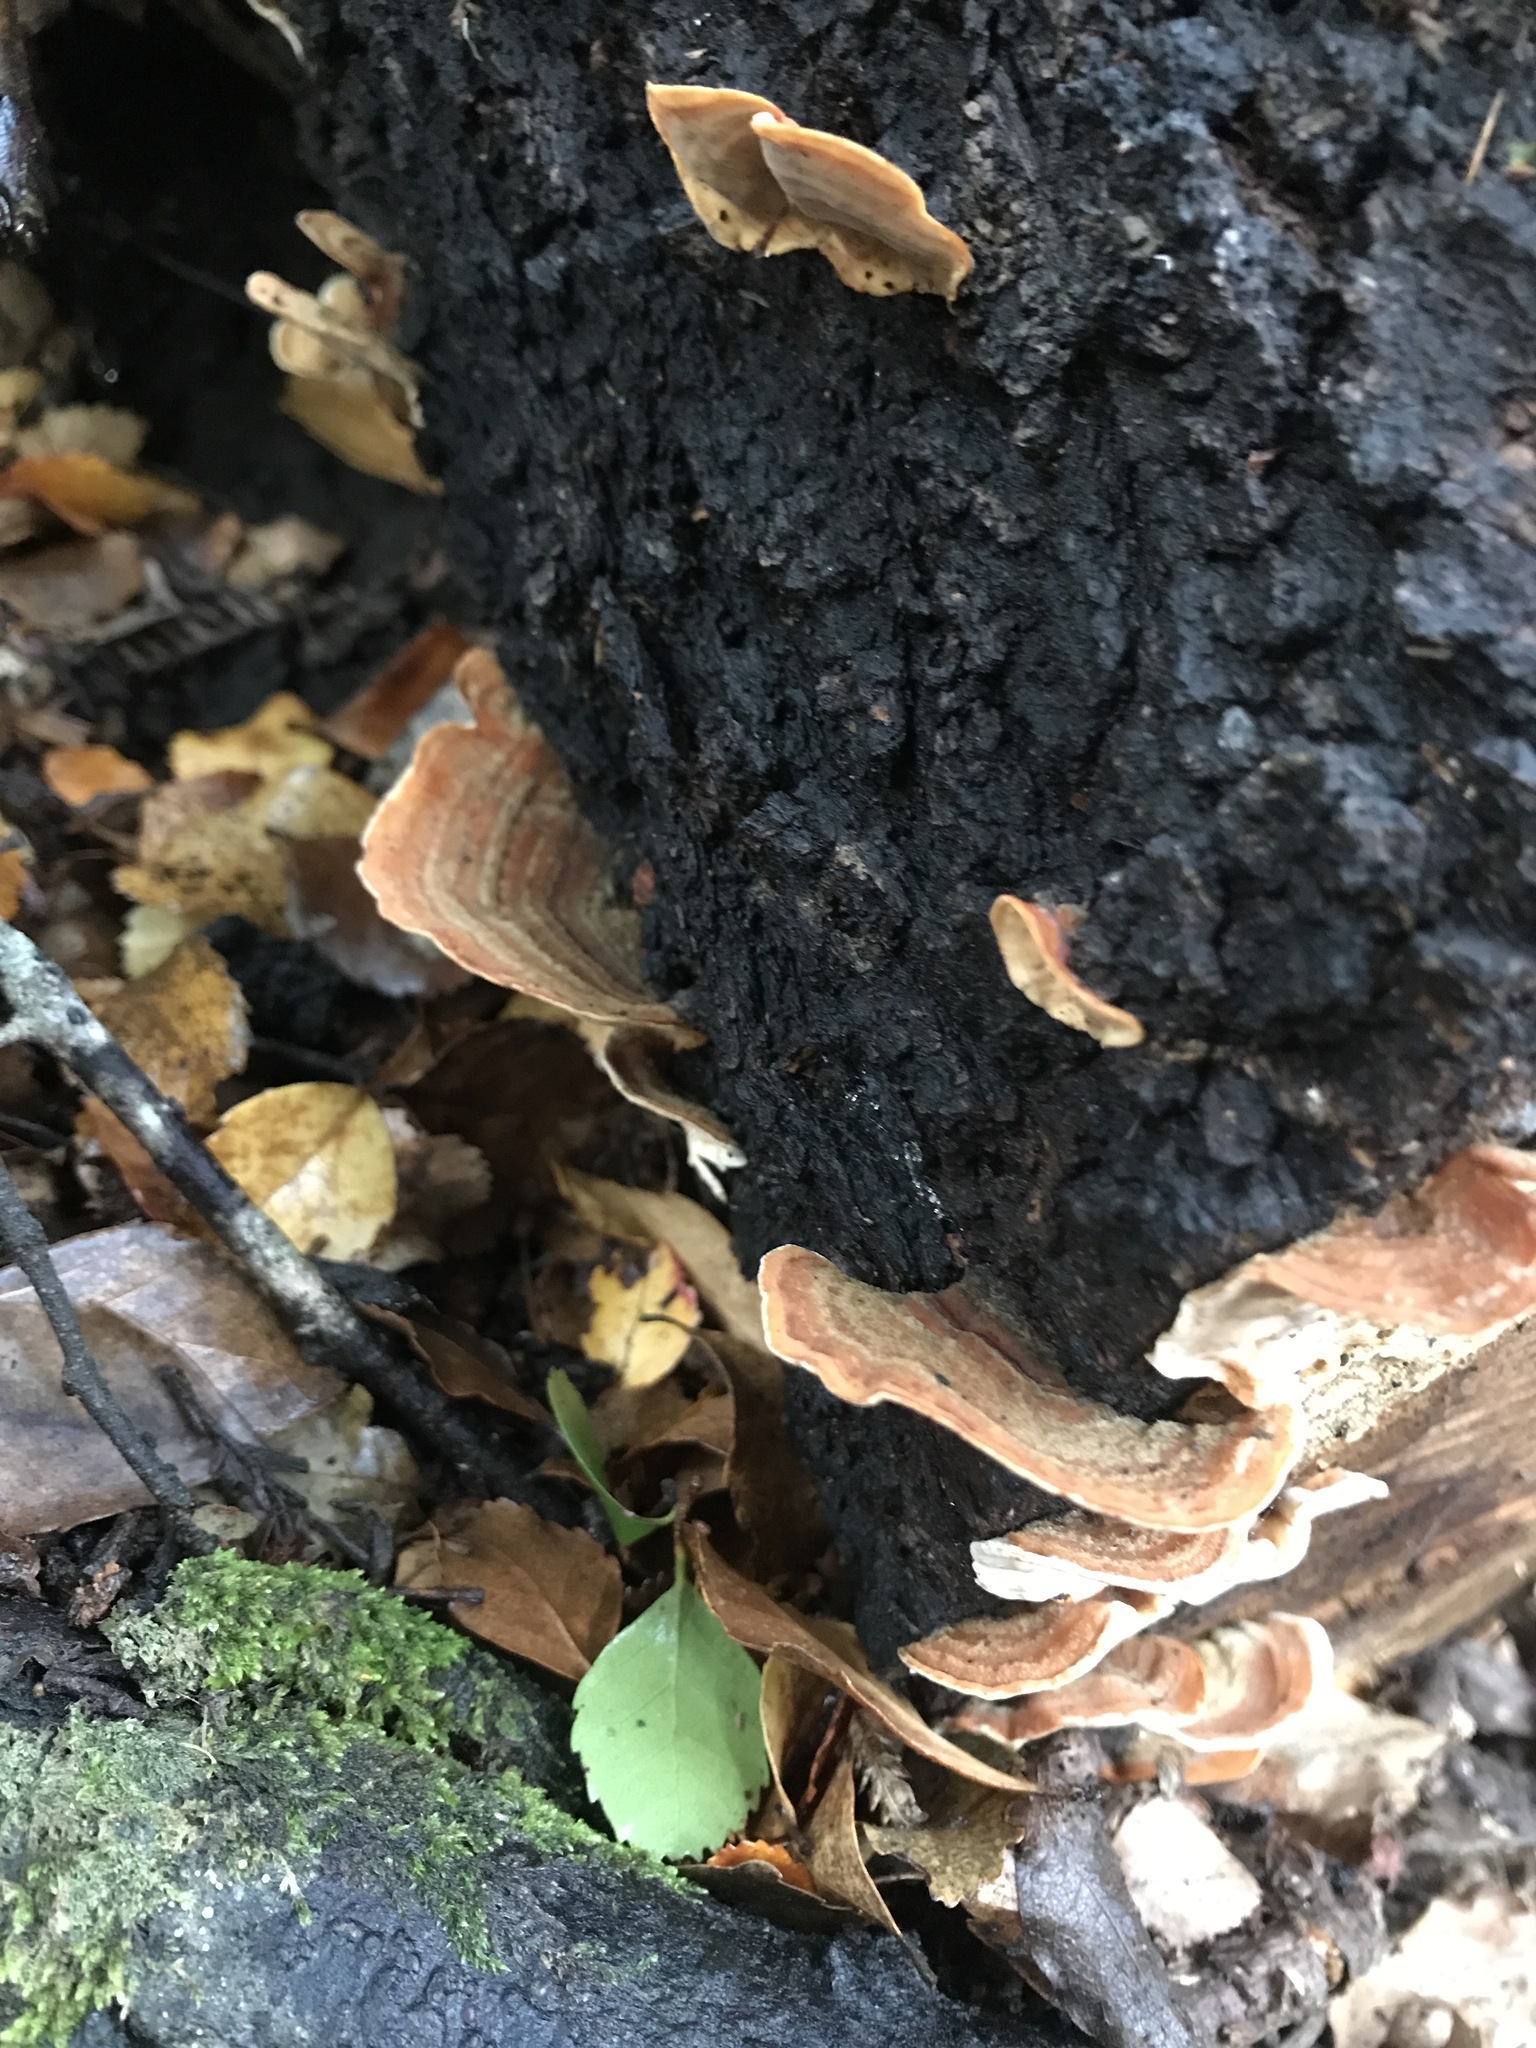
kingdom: Fungi
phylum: Basidiomycota
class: Agaricomycetes
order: Russulales
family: Stereaceae
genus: Stereum
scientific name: Stereum versicolor
